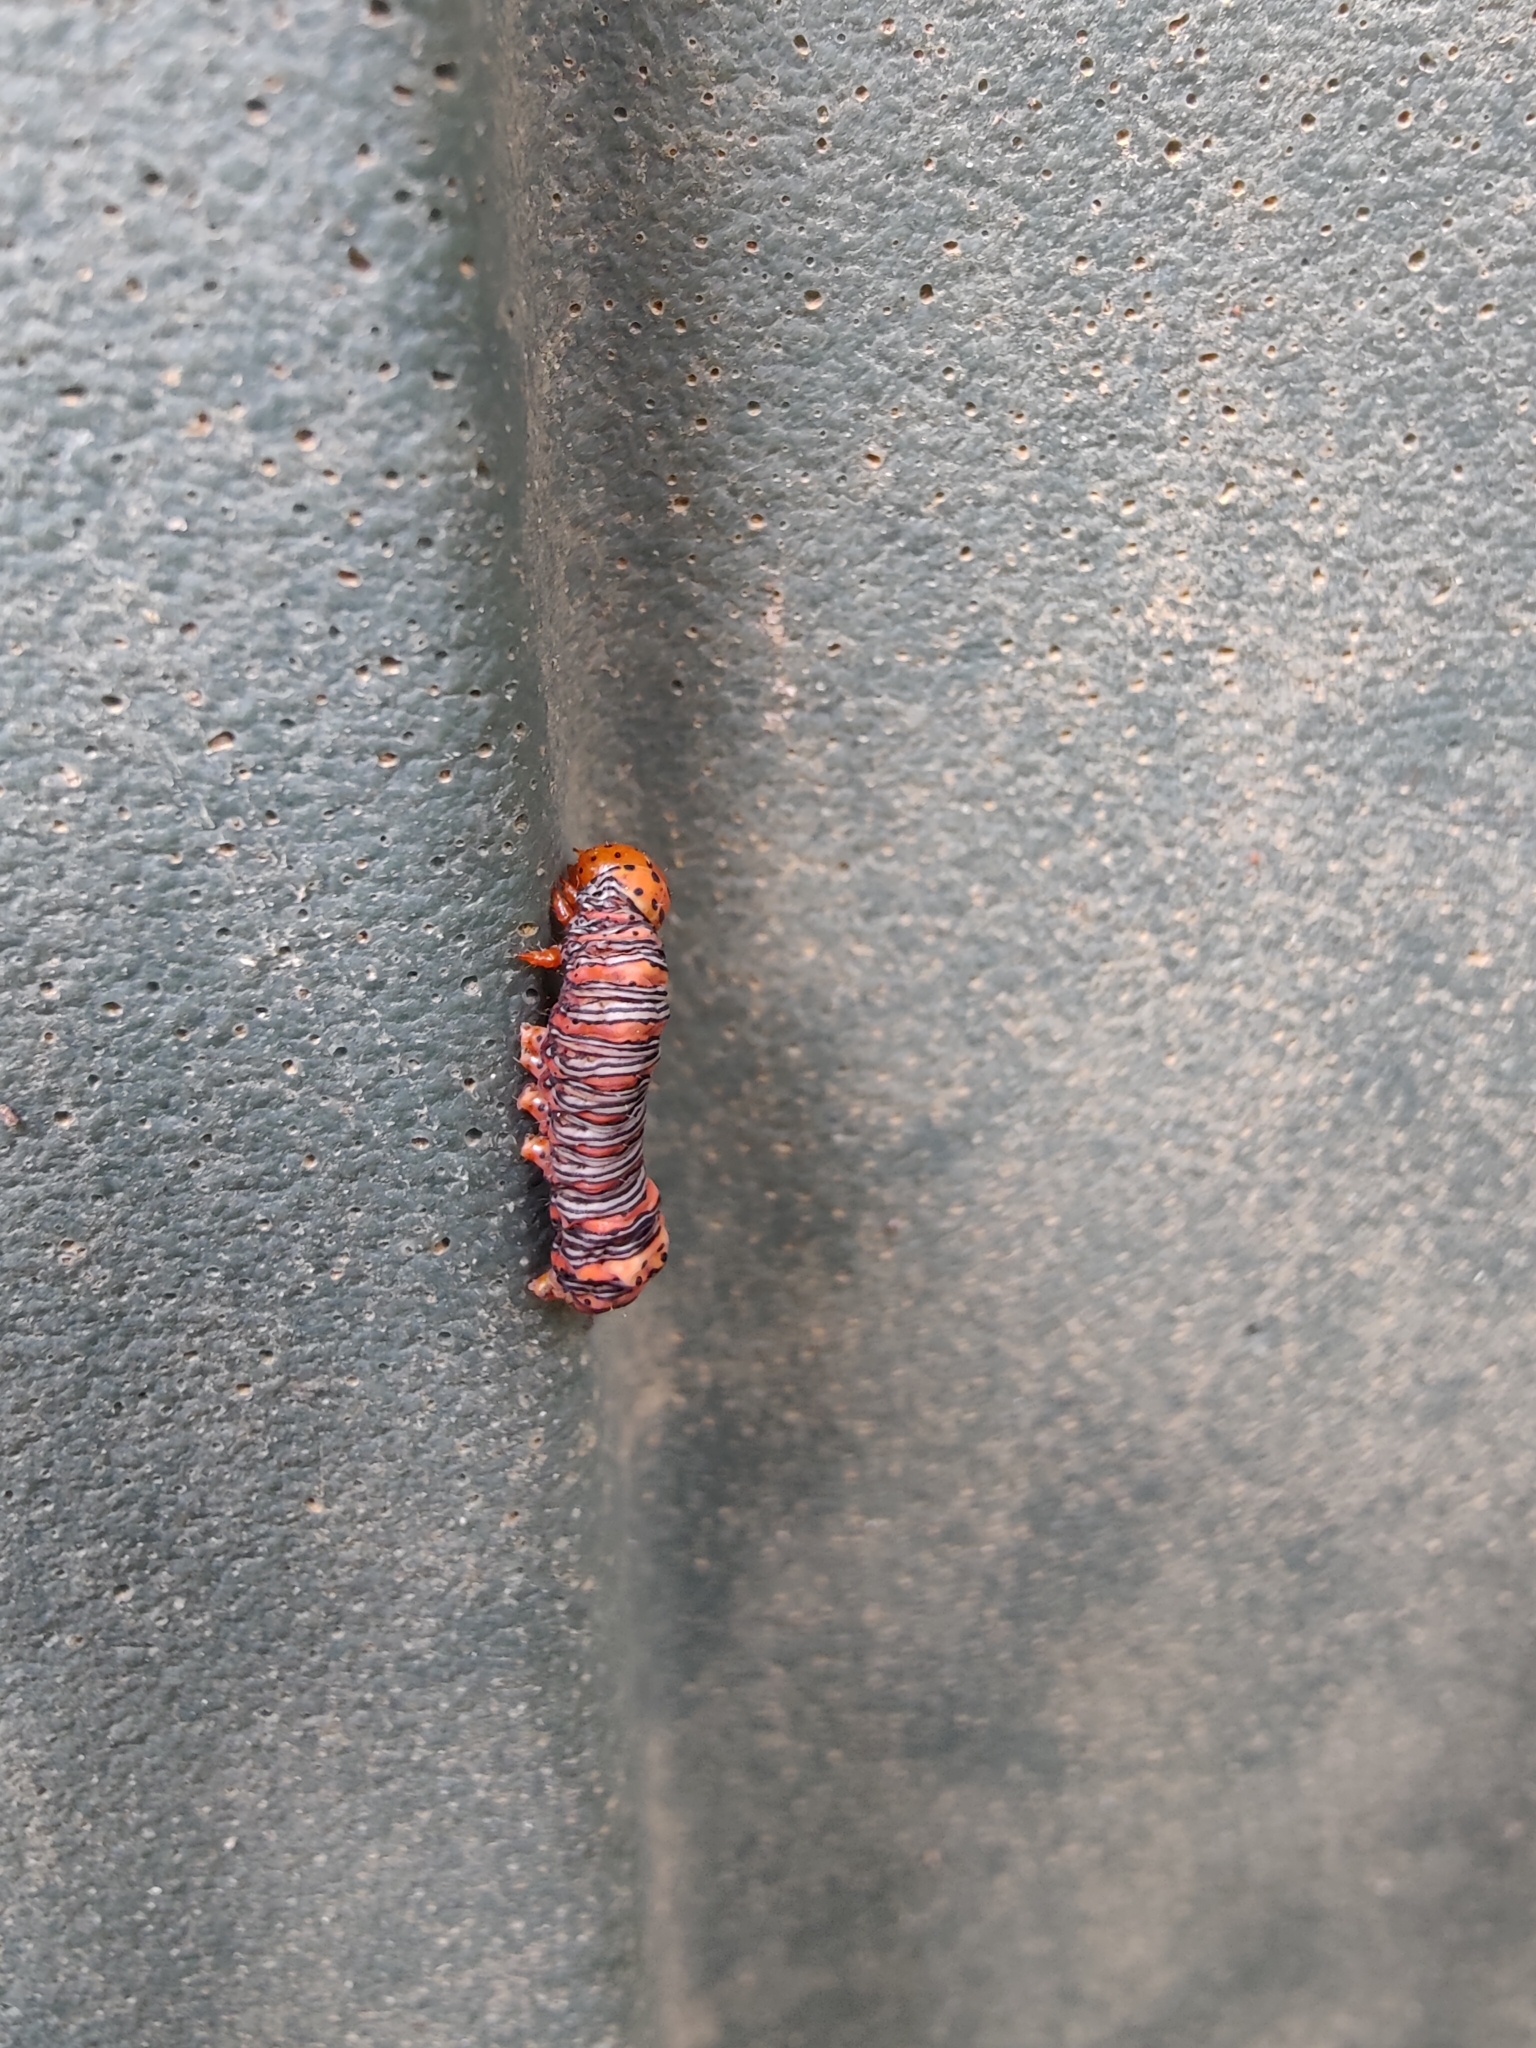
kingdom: Animalia
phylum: Arthropoda
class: Insecta
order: Lepidoptera
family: Noctuidae
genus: Eudryas
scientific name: Eudryas grata
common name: Beautiful wood-nymph
